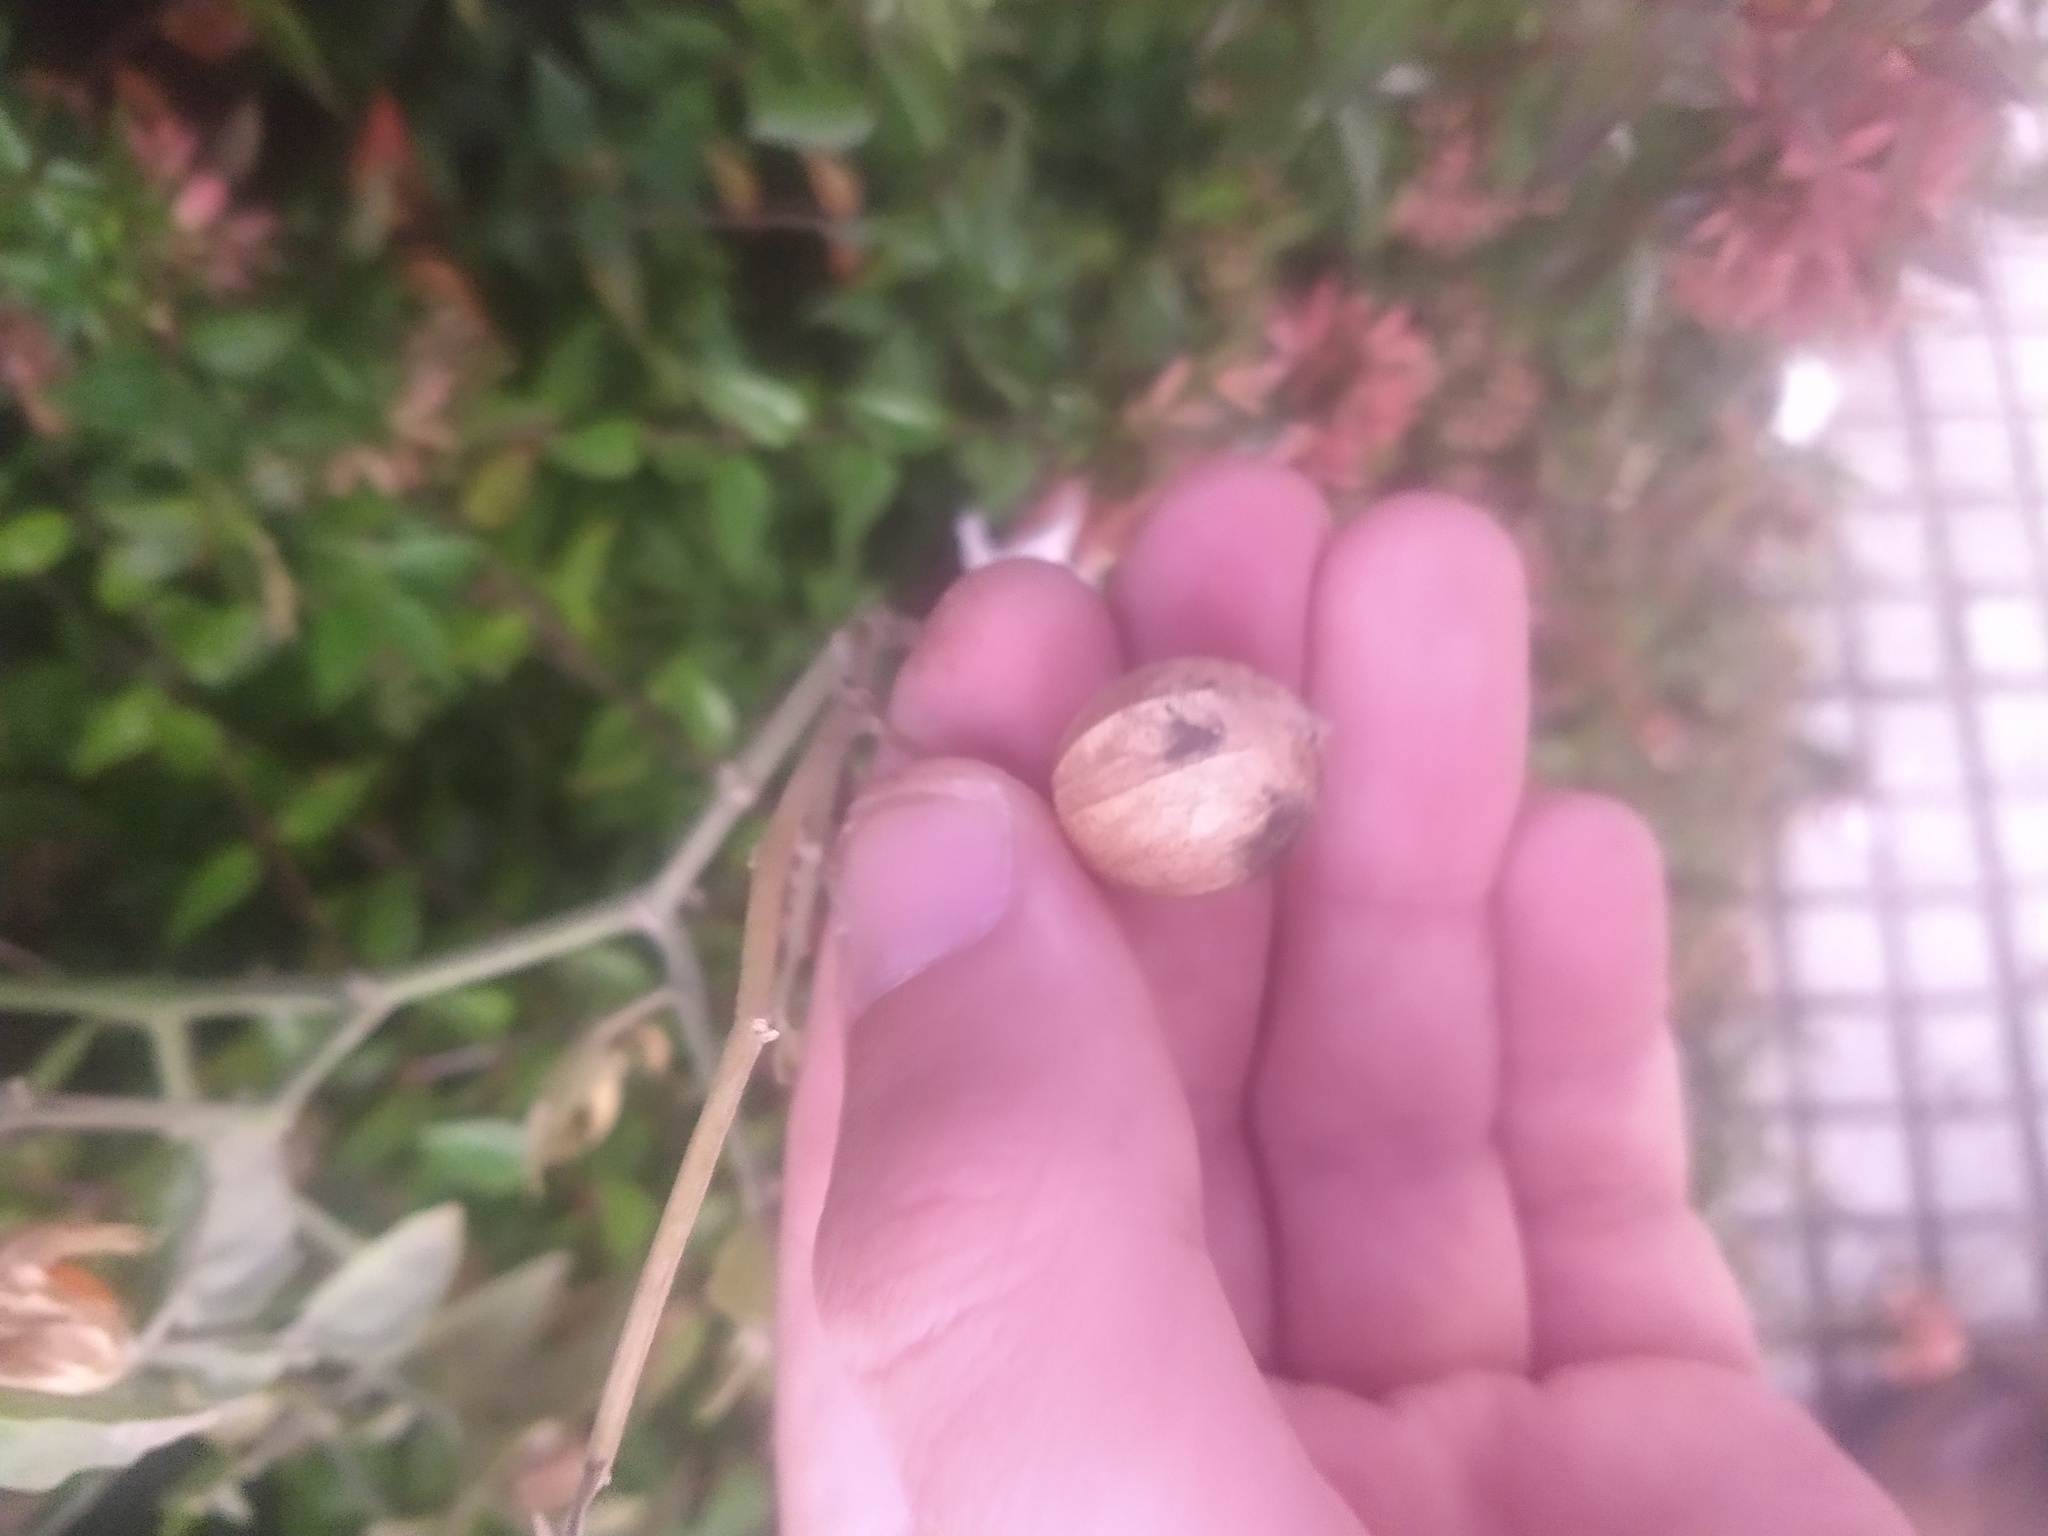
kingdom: Plantae
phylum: Tracheophyta
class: Magnoliopsida
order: Solanales
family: Solanaceae
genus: Physalis
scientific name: Physalis viscosa
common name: Stellate ground-cherry
